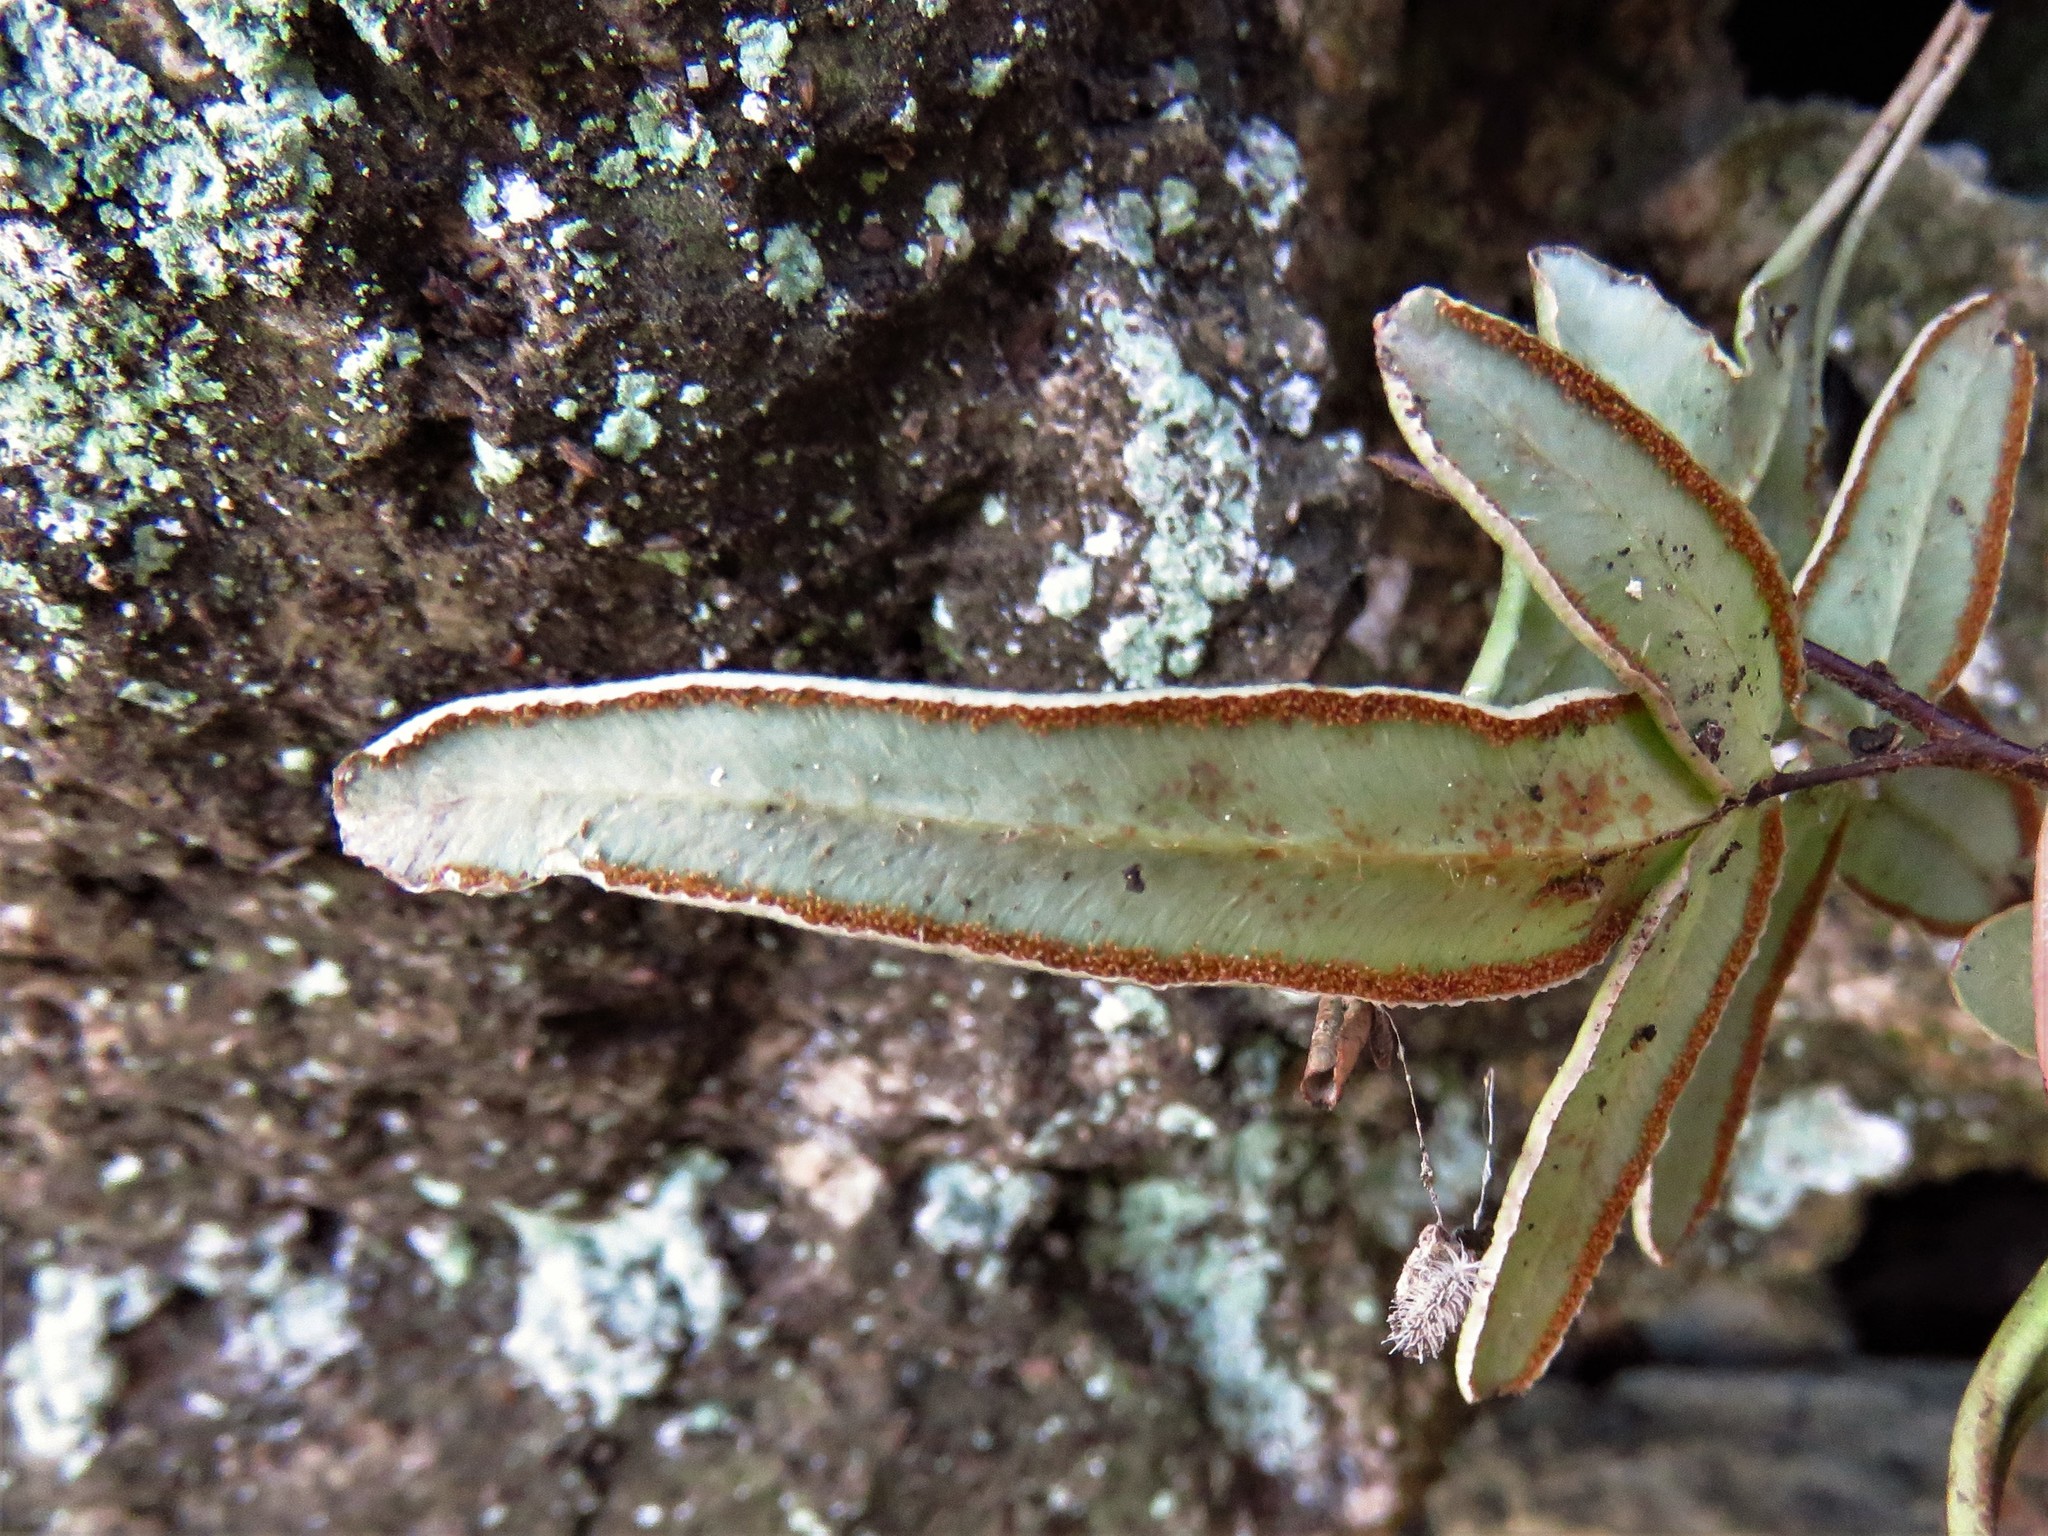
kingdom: Plantae
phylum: Tracheophyta
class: Polypodiopsida
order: Polypodiales
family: Pteridaceae
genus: Pellaea
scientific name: Pellaea atropurpurea
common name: Hairy cliffbrake
